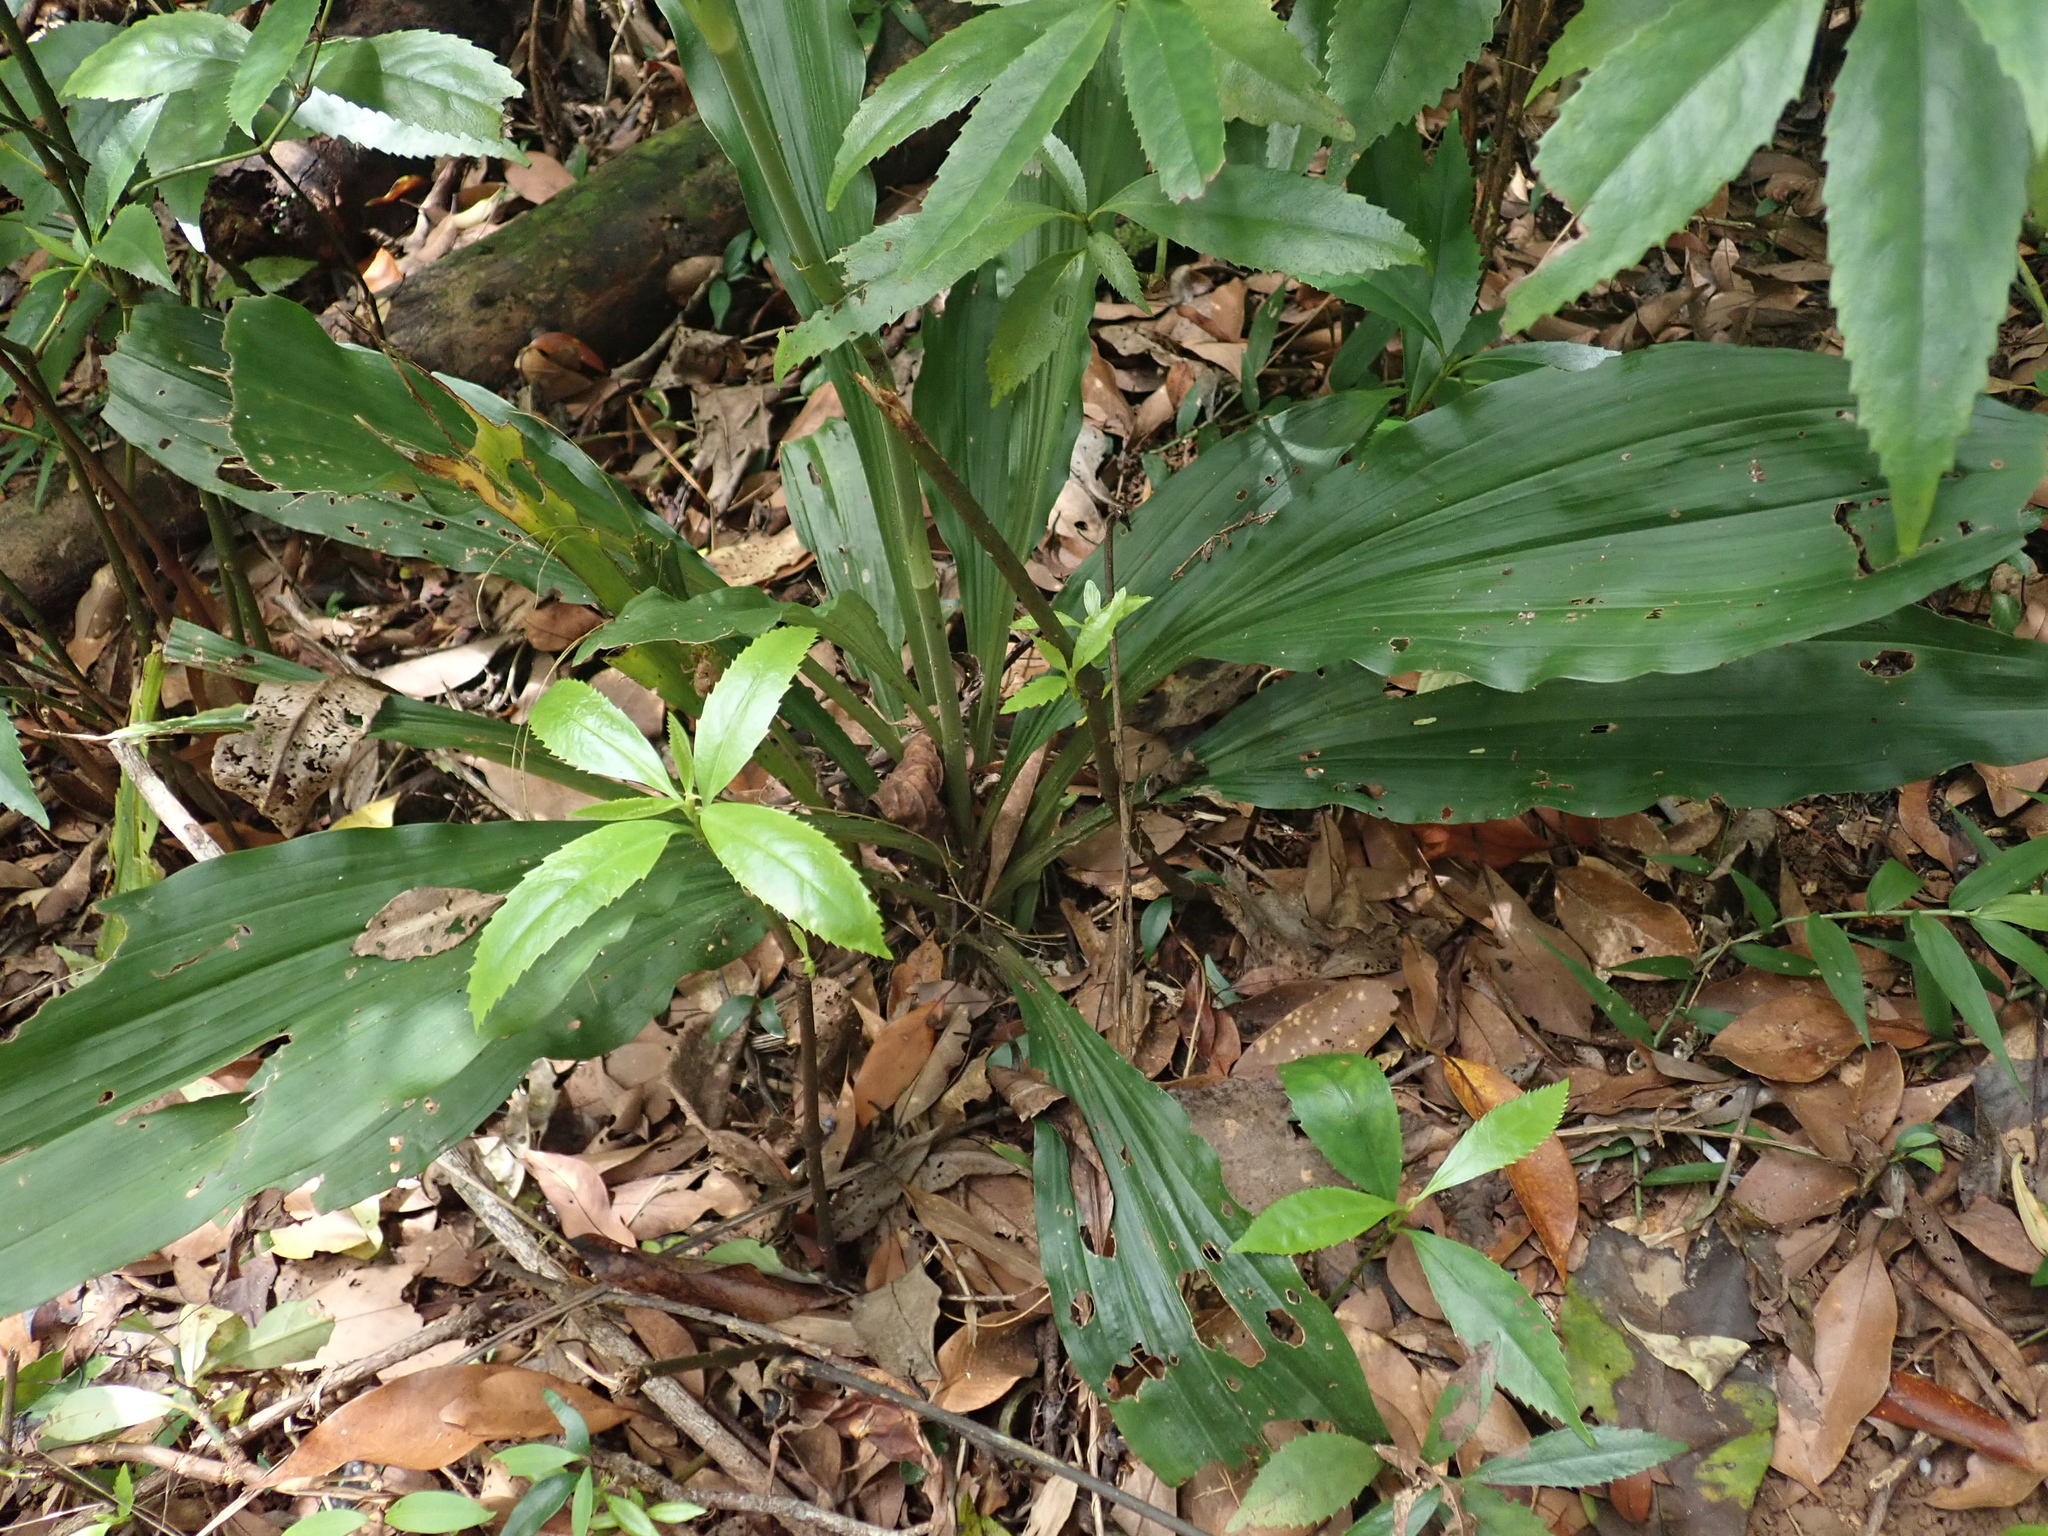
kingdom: Plantae
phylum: Tracheophyta
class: Liliopsida
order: Asparagales
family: Orchidaceae
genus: Calanthe
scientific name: Calanthe triplicata
